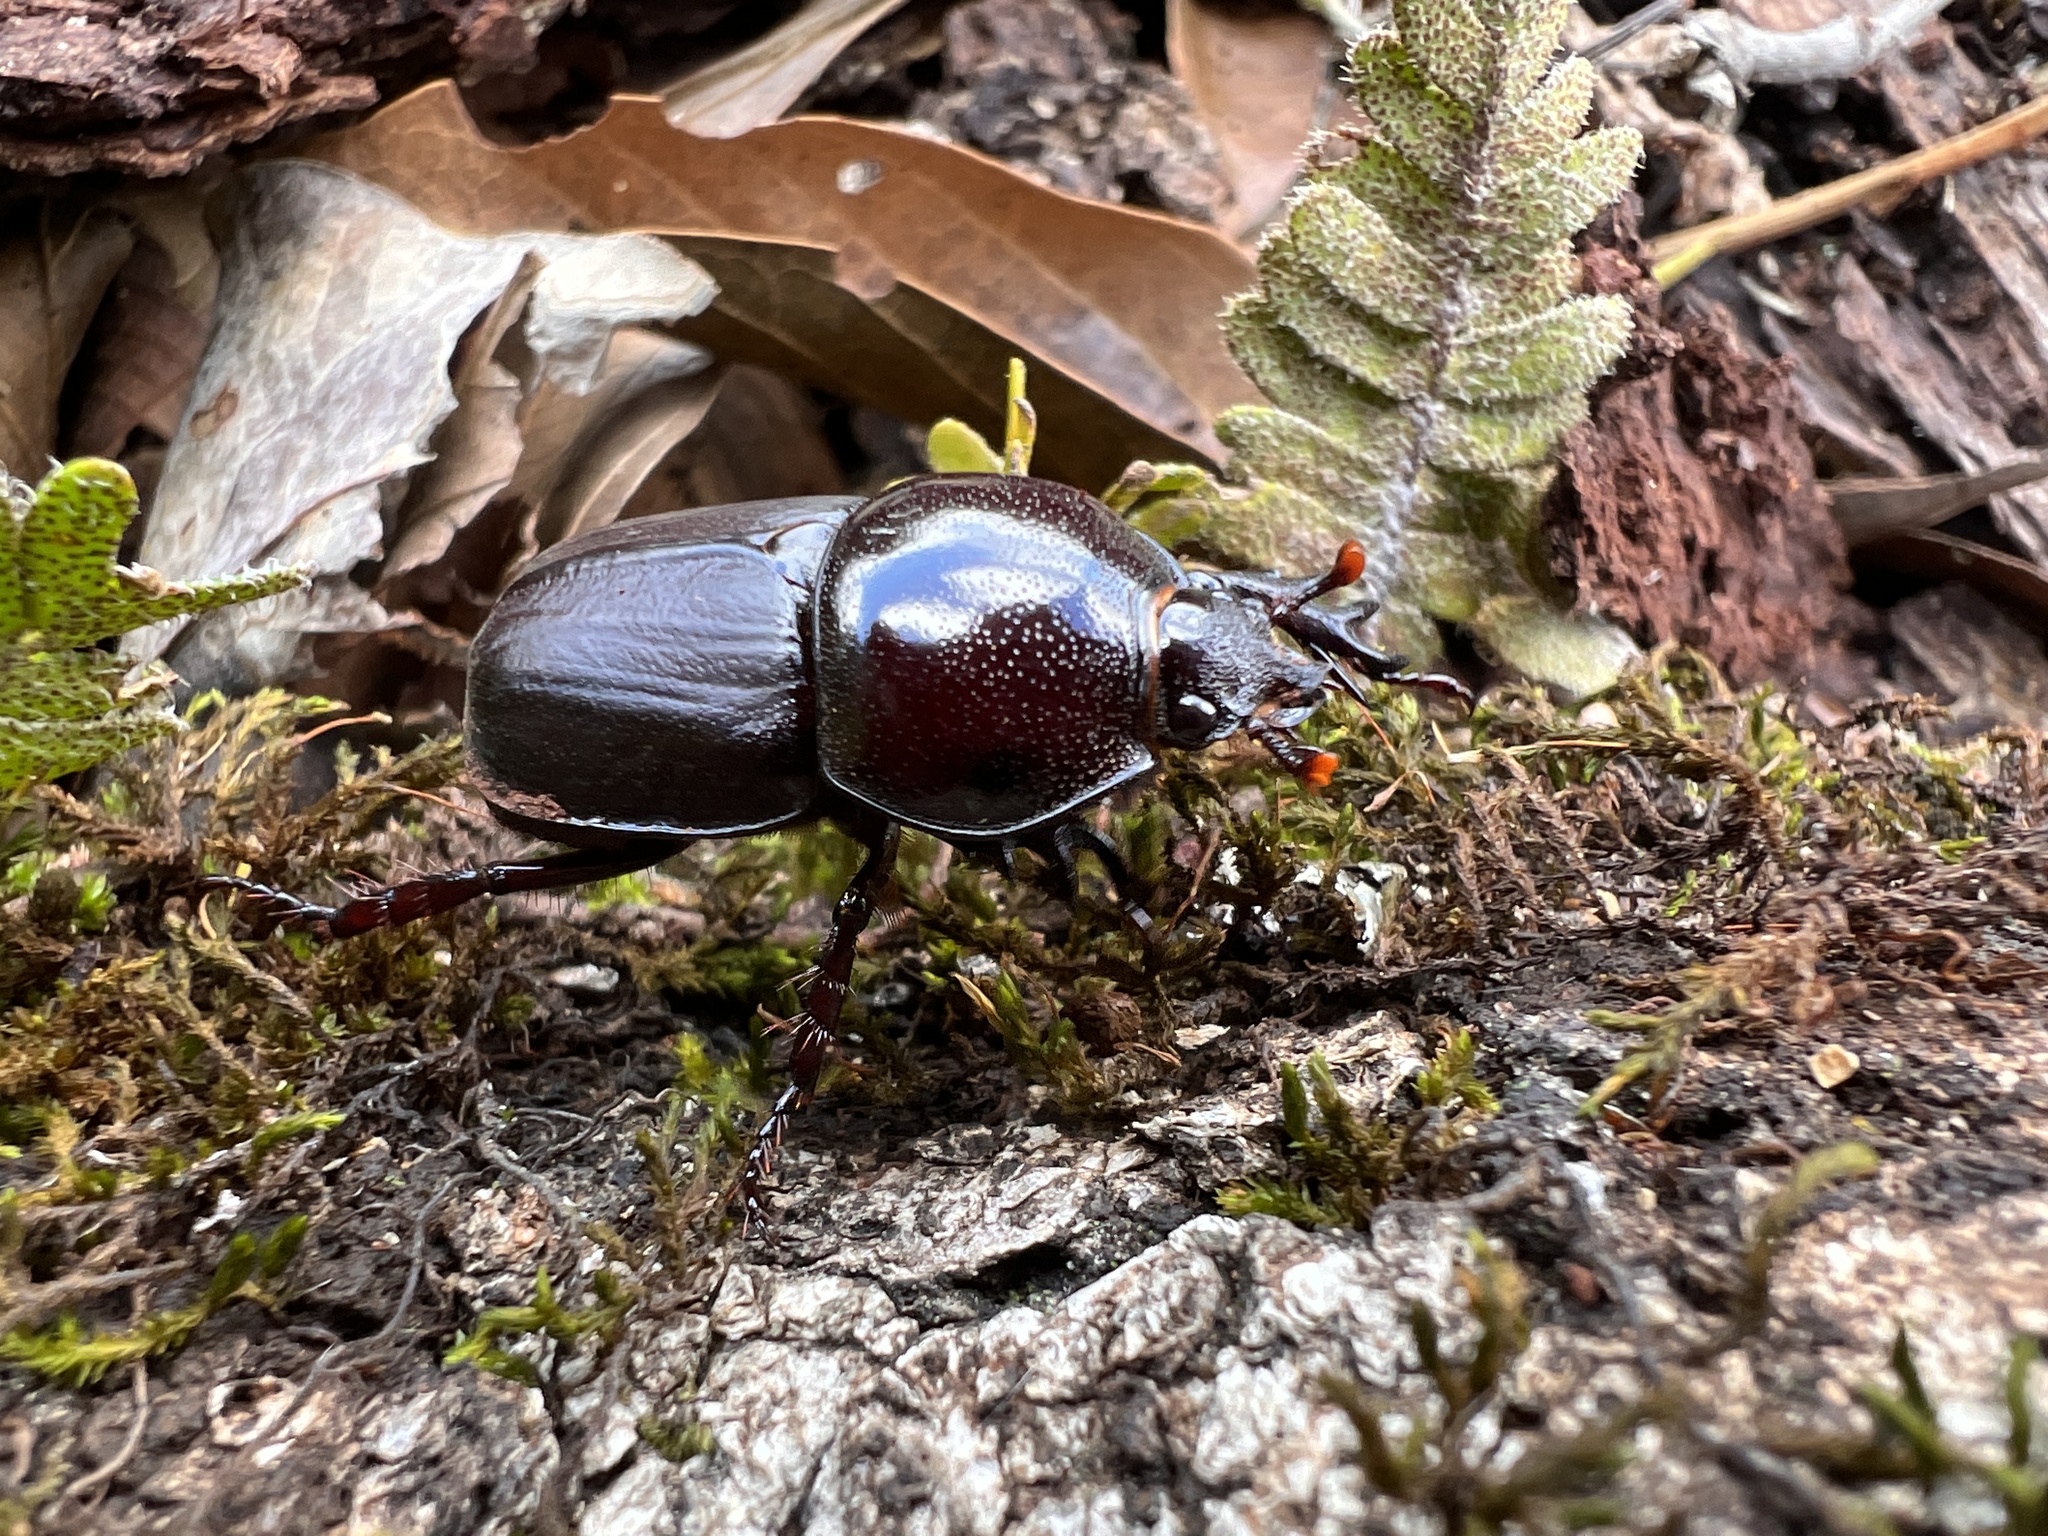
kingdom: Animalia
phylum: Arthropoda
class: Insecta
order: Coleoptera
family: Scarabaeidae
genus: Diloboderus
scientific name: Diloboderus abderus
